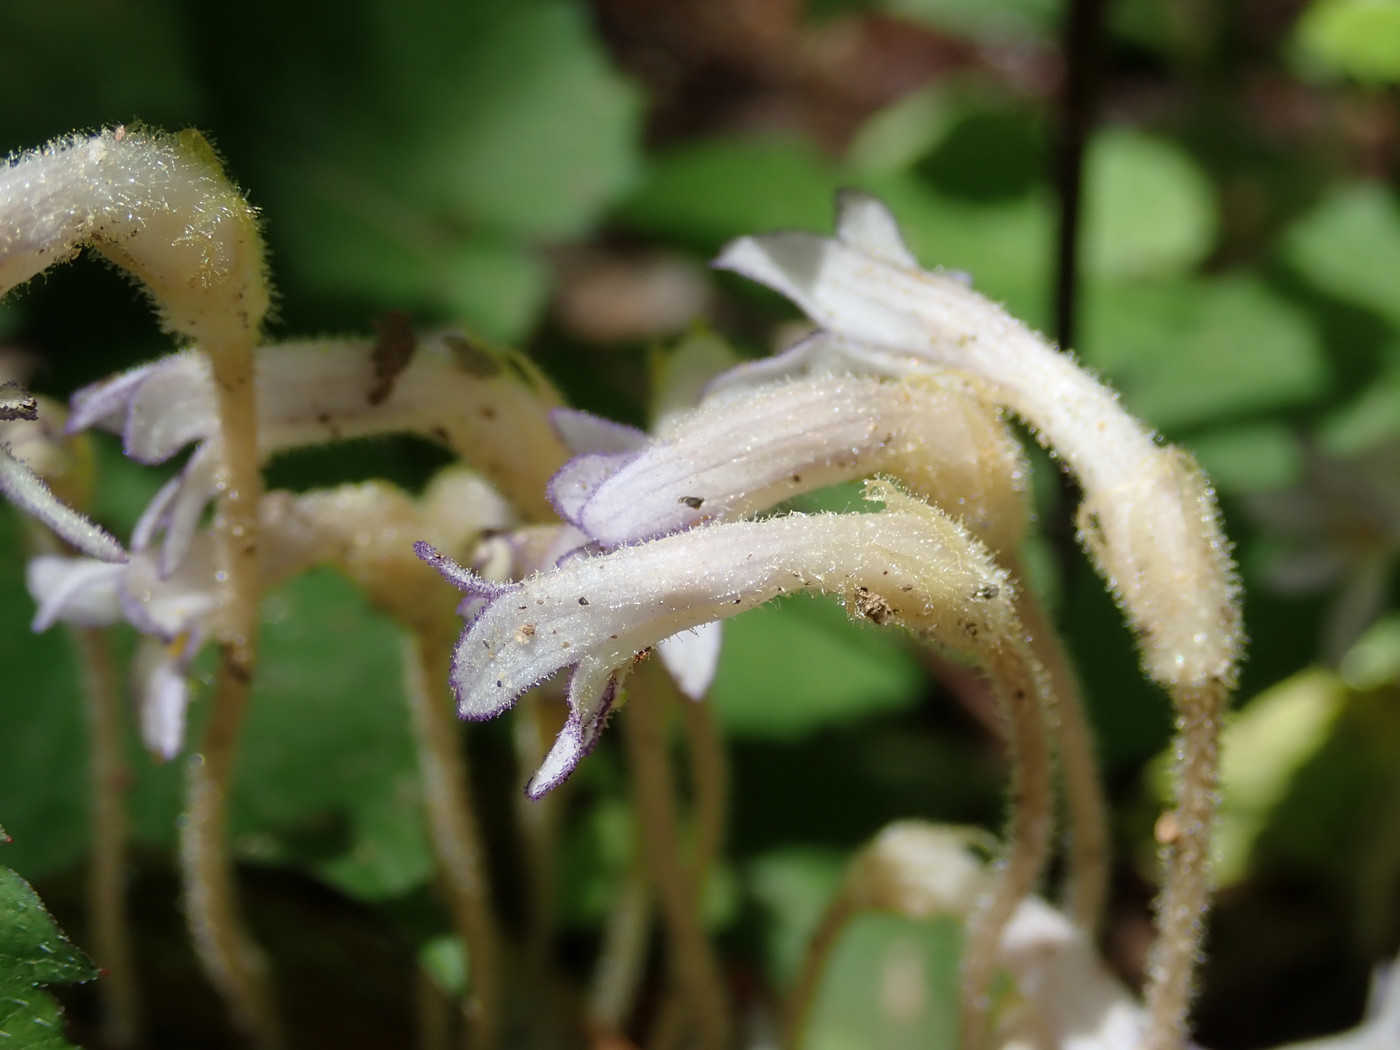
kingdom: Plantae
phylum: Tracheophyta
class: Magnoliopsida
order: Lamiales
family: Orobanchaceae
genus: Aphyllon
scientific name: Aphyllon uniflorum
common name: One-flowered broomrape
